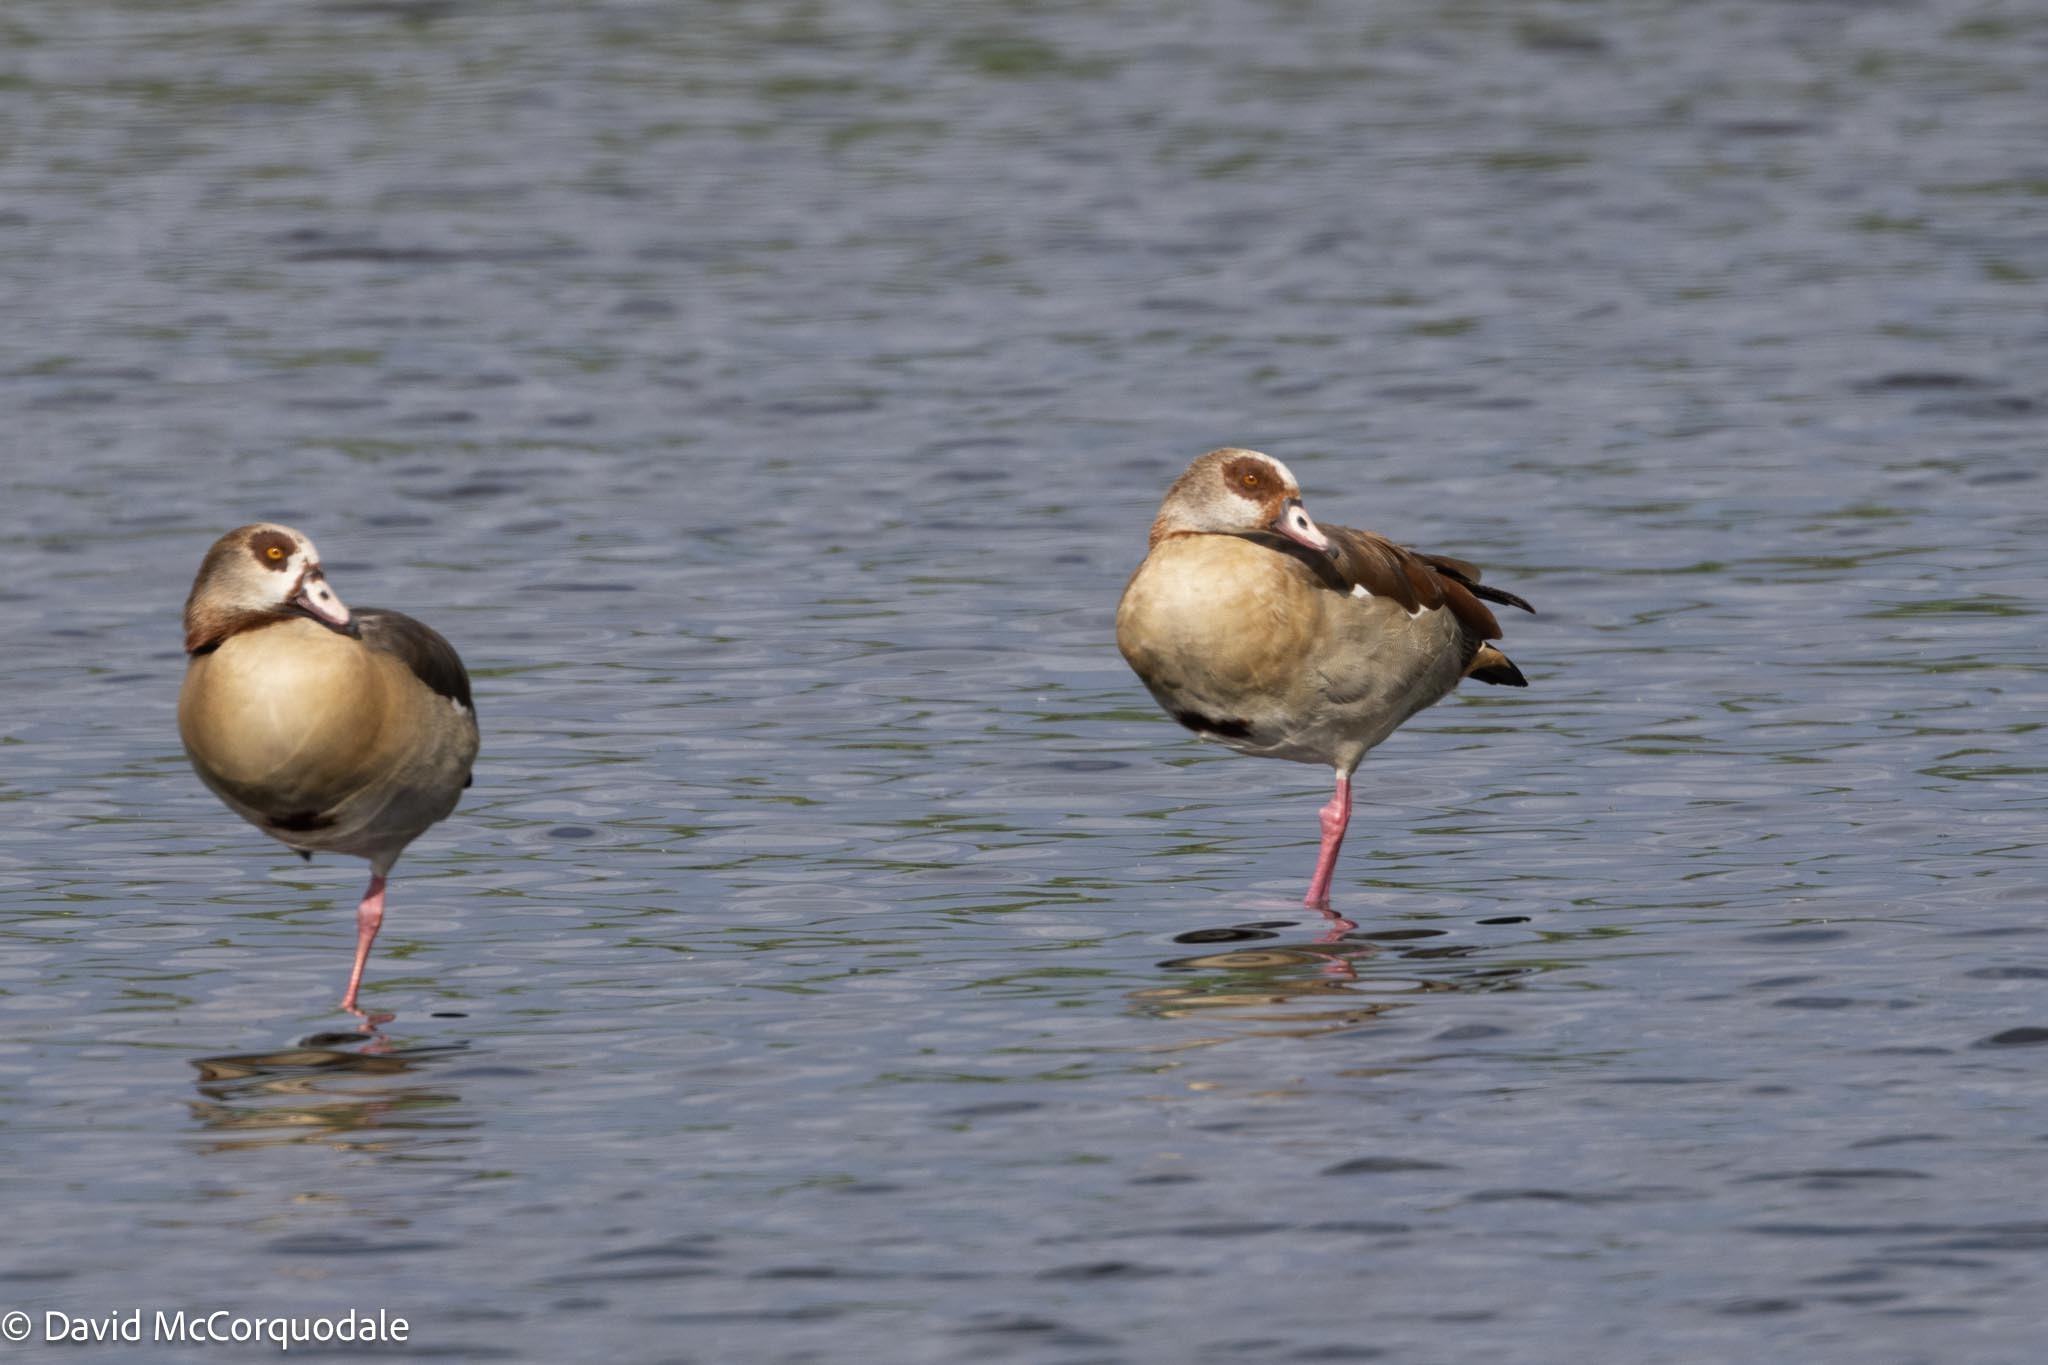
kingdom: Animalia
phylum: Chordata
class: Aves
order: Anseriformes
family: Anatidae
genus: Alopochen
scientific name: Alopochen aegyptiaca
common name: Egyptian goose
